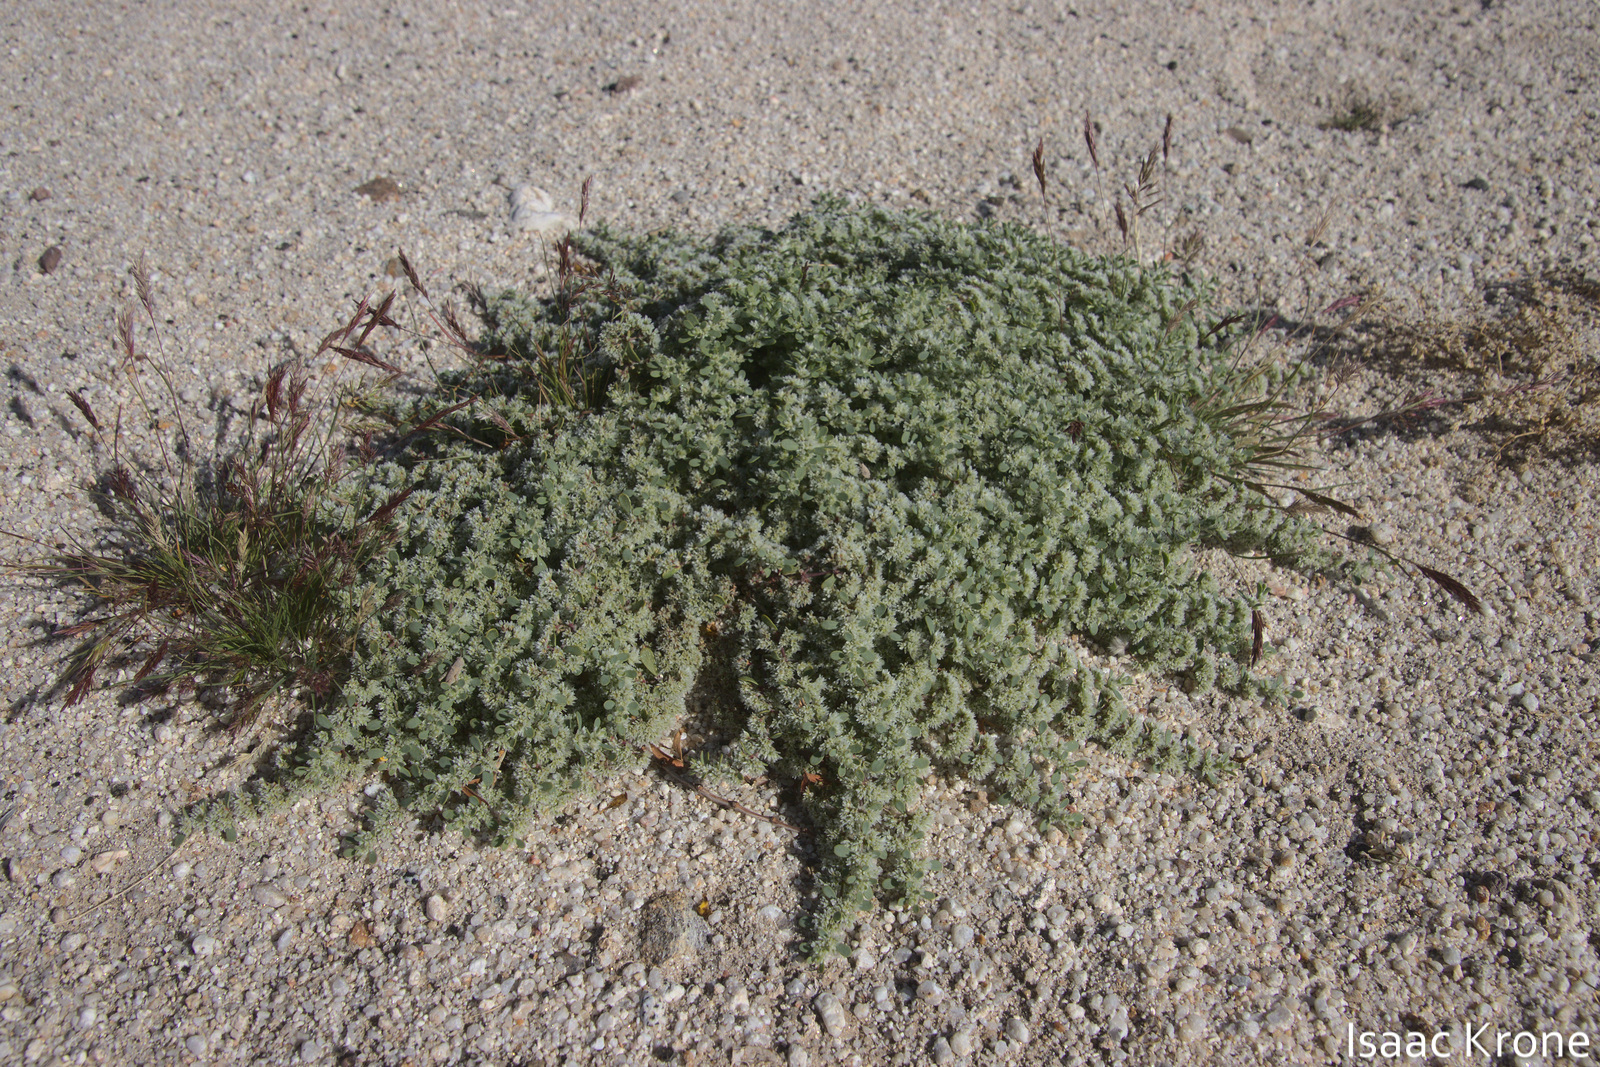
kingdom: Plantae
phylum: Tracheophyta
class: Magnoliopsida
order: Caryophyllales
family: Caryophyllaceae
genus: Achyronychia
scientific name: Achyronychia cooperi
